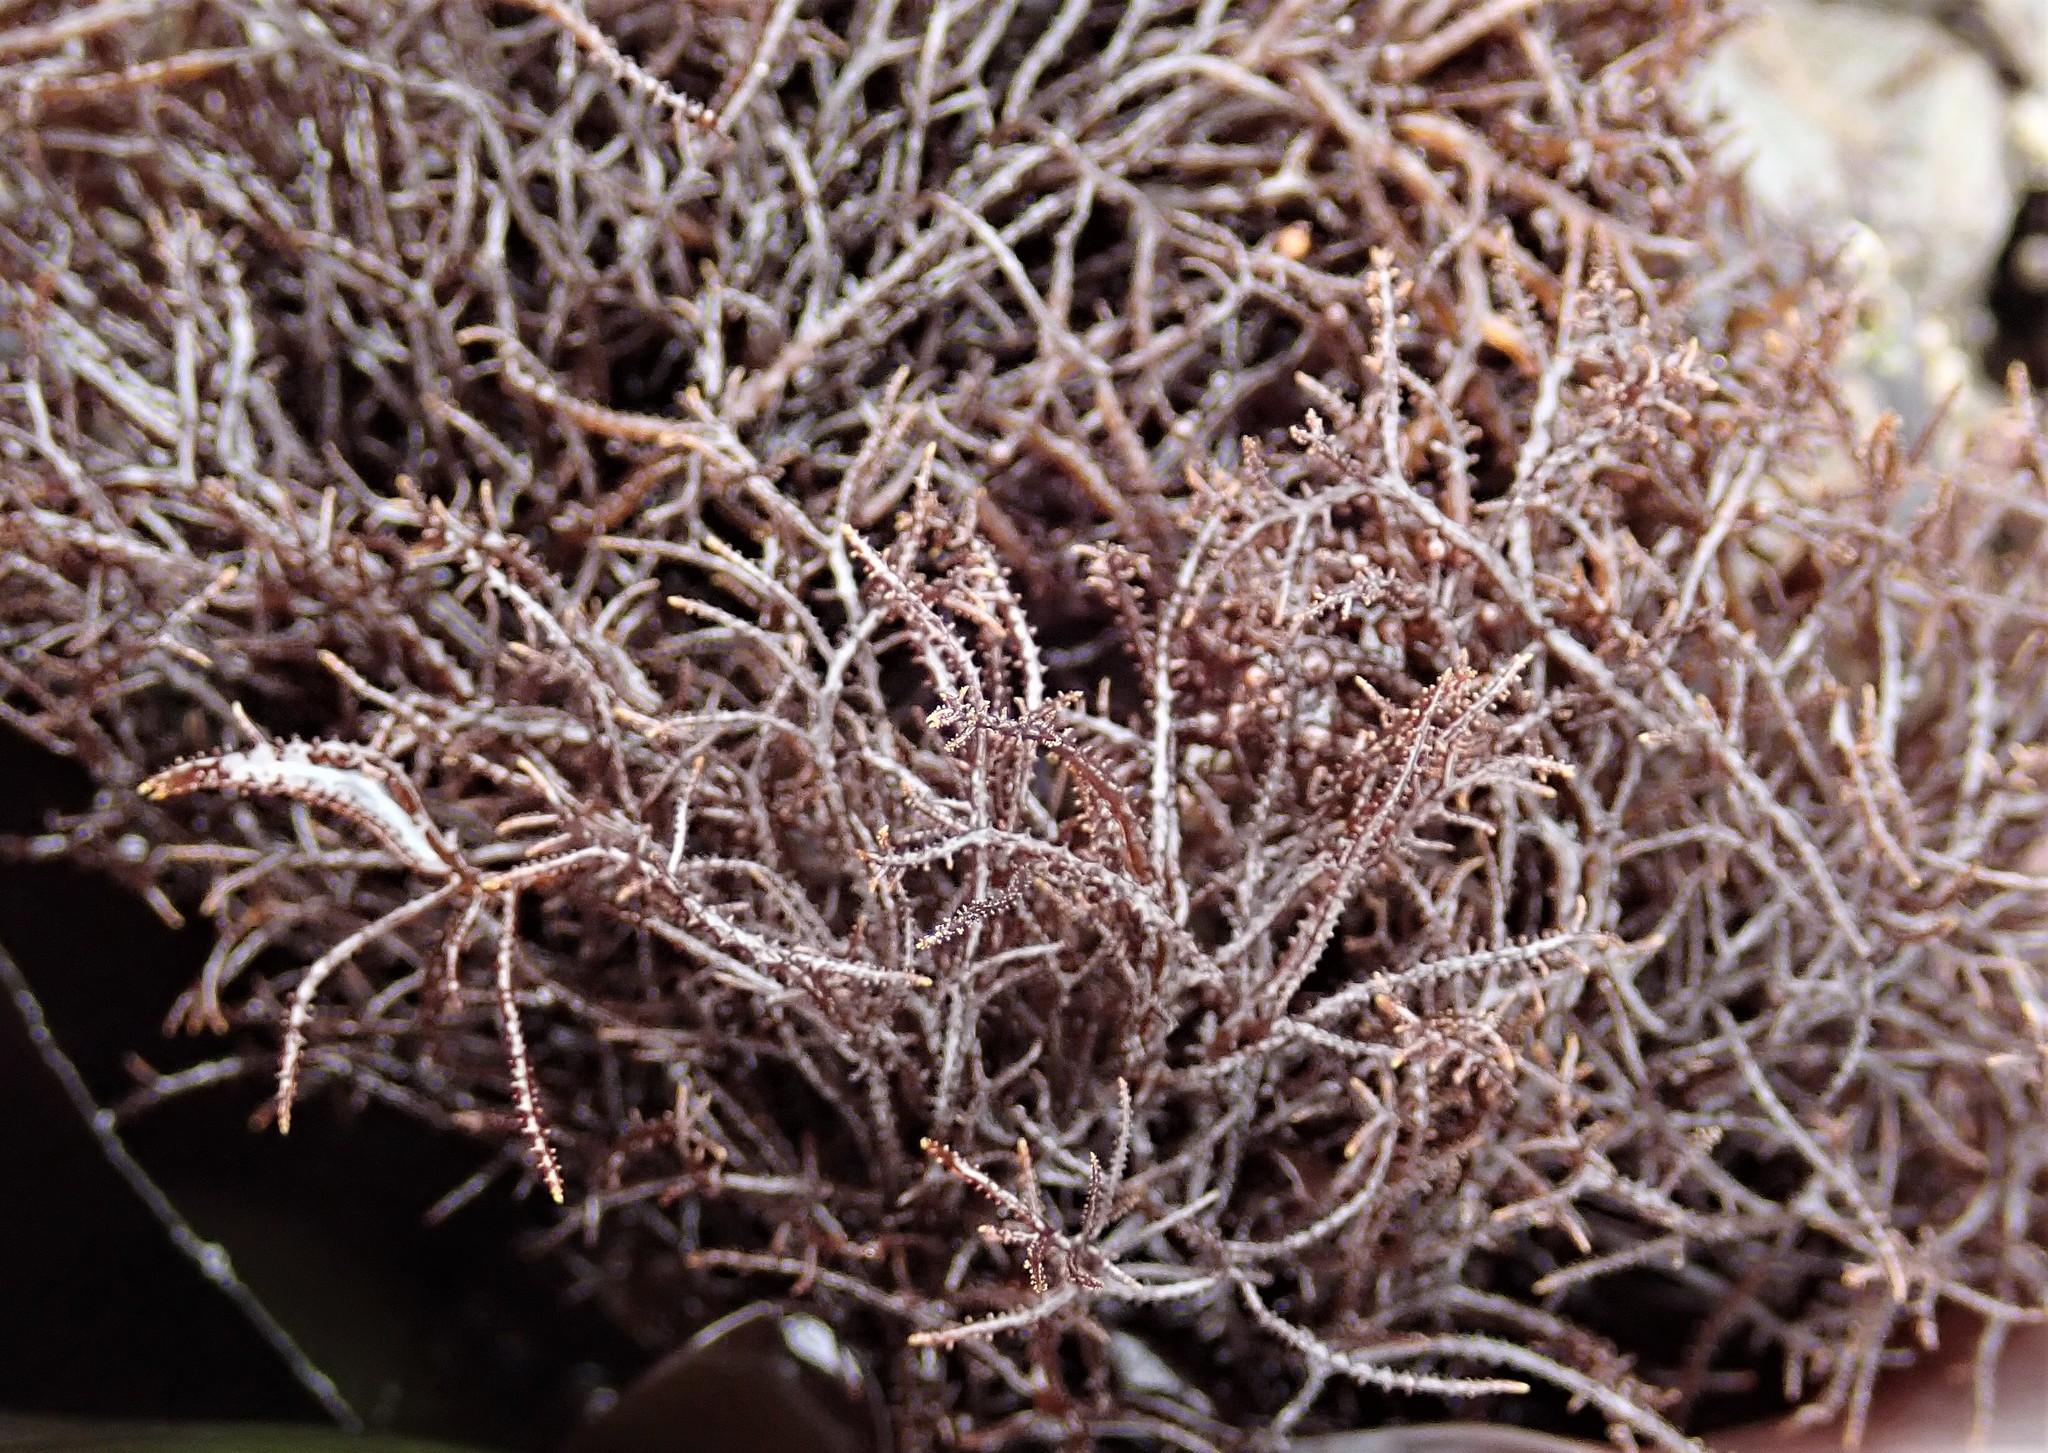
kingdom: Plantae
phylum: Rhodophyta
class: Florideophyceae
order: Gigartinales
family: Endocladiaceae
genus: Endocladia
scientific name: Endocladia muricata
